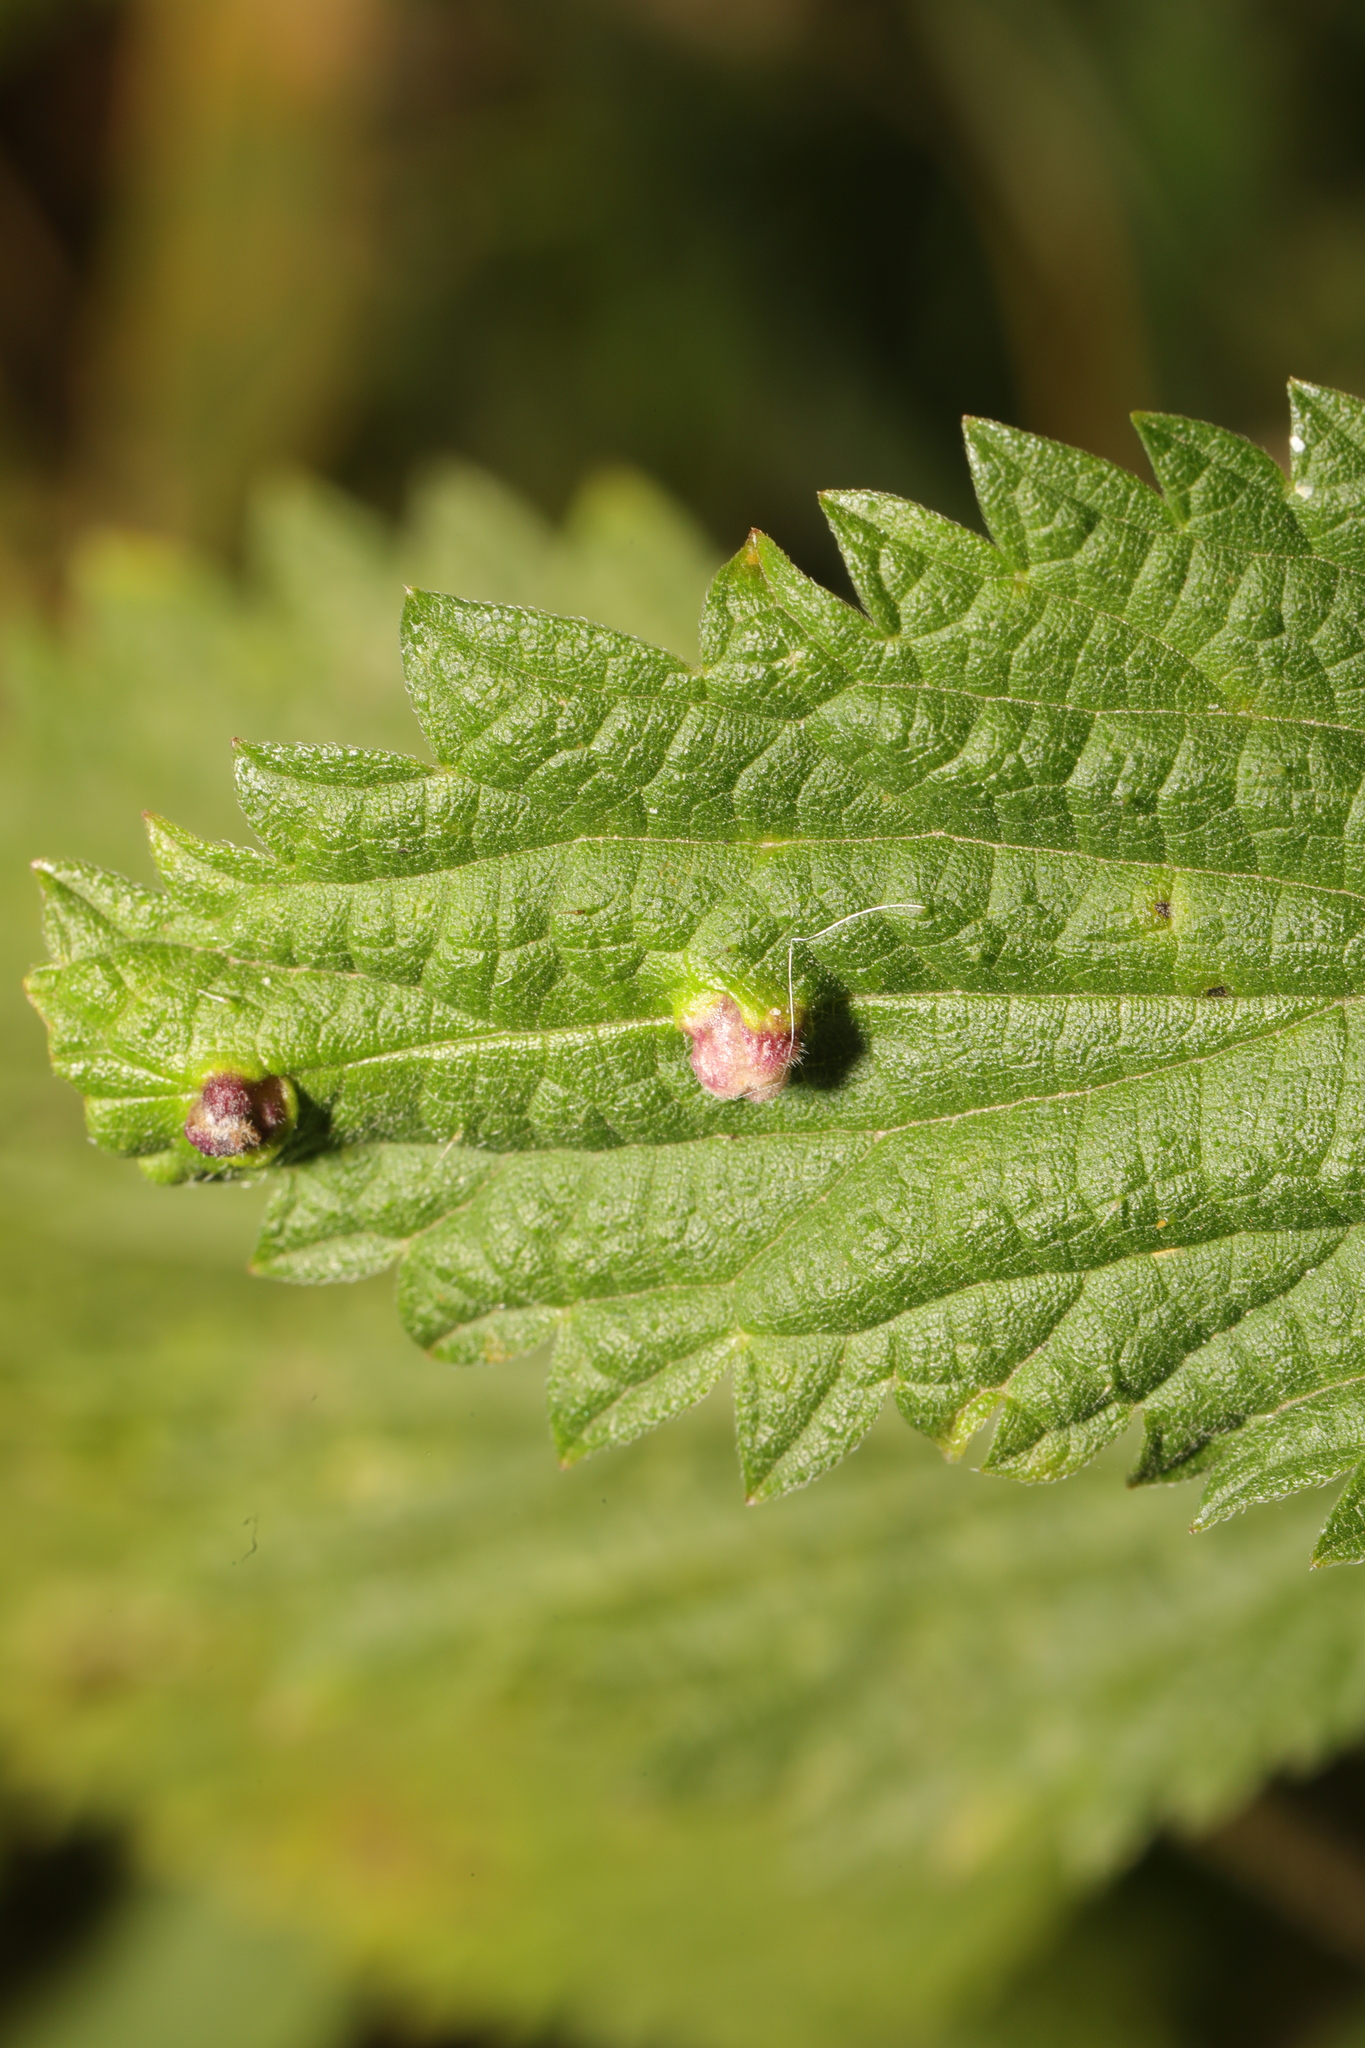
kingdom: Animalia
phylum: Arthropoda
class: Insecta
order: Diptera
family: Cecidomyiidae
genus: Dasineura
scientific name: Dasineura urticae
